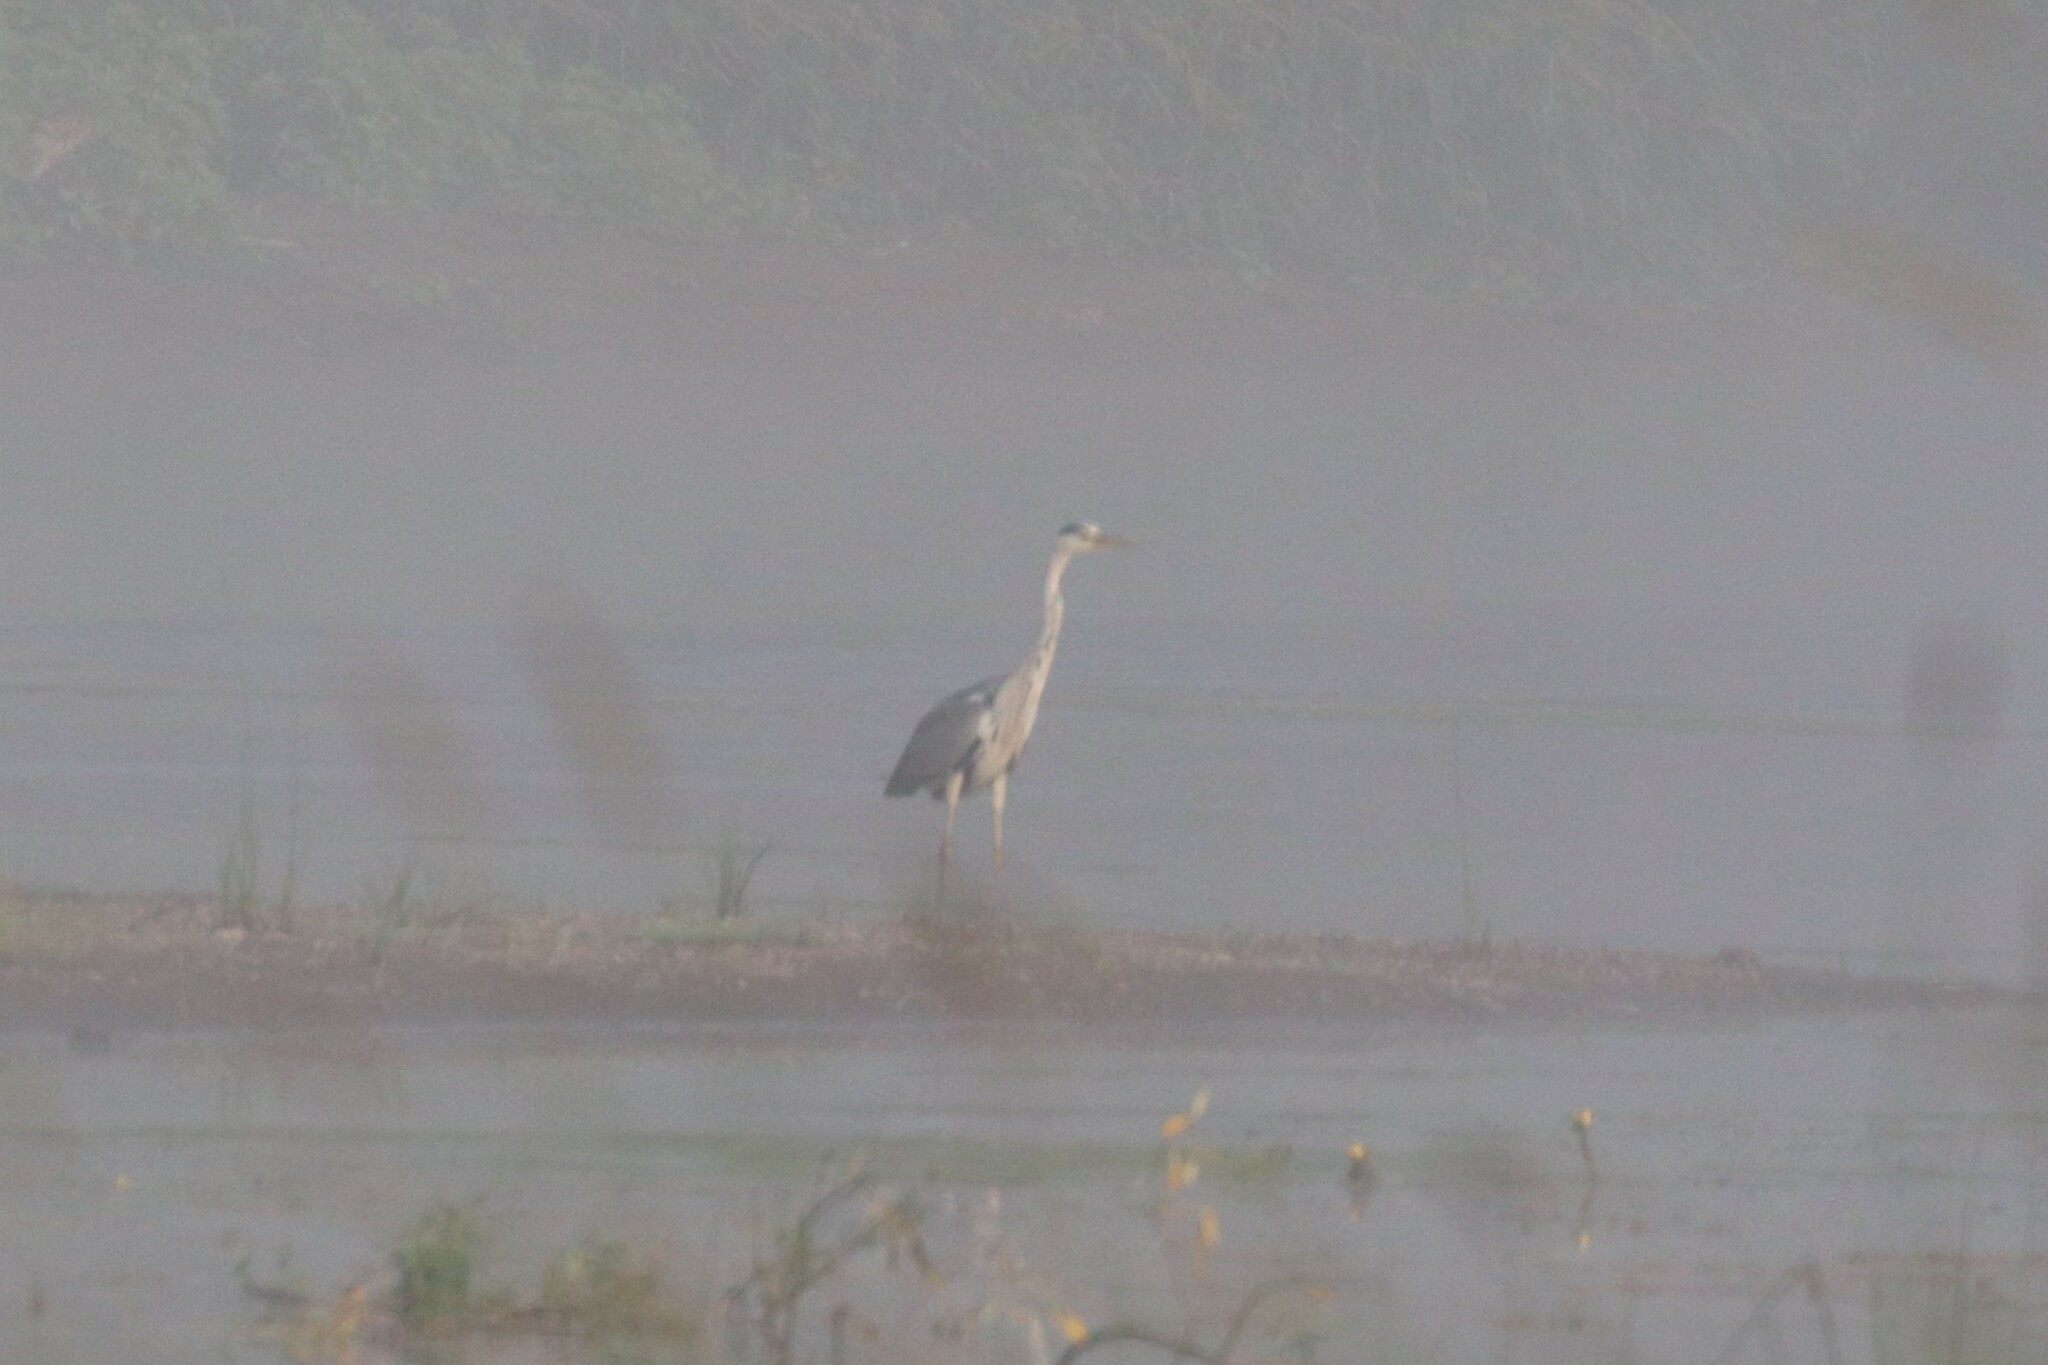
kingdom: Animalia
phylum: Chordata
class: Aves
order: Pelecaniformes
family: Ardeidae
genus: Ardea
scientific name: Ardea cinerea
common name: Grey heron
